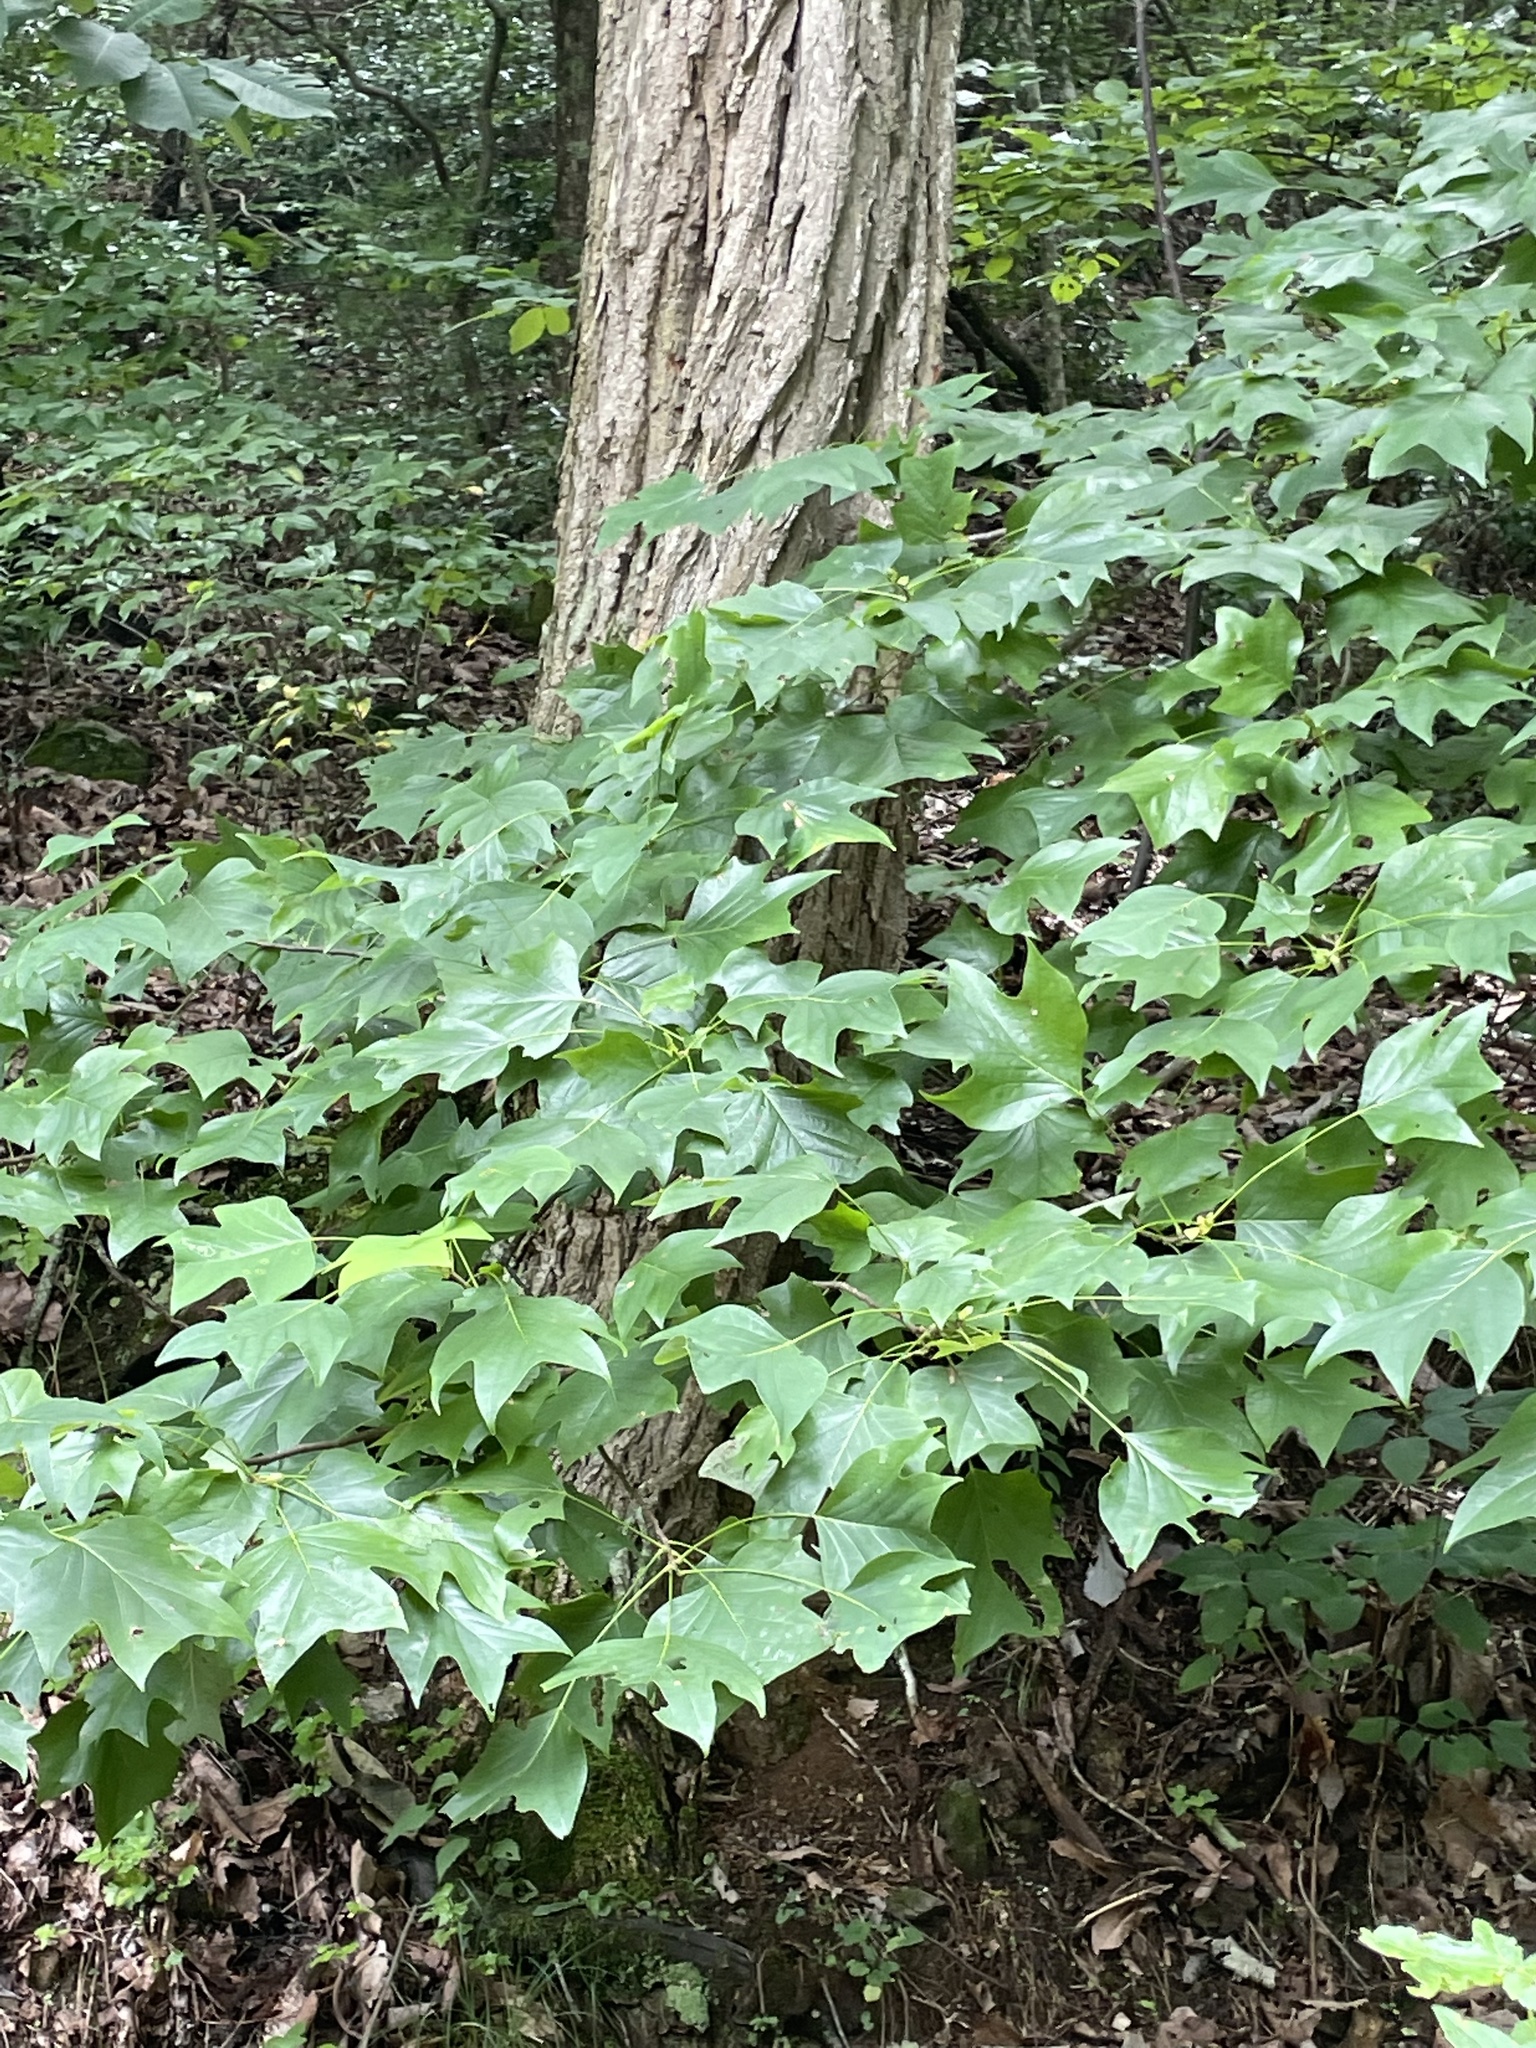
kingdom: Plantae
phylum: Tracheophyta
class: Magnoliopsida
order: Magnoliales
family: Magnoliaceae
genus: Liriodendron
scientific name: Liriodendron tulipifera
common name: Tulip tree
